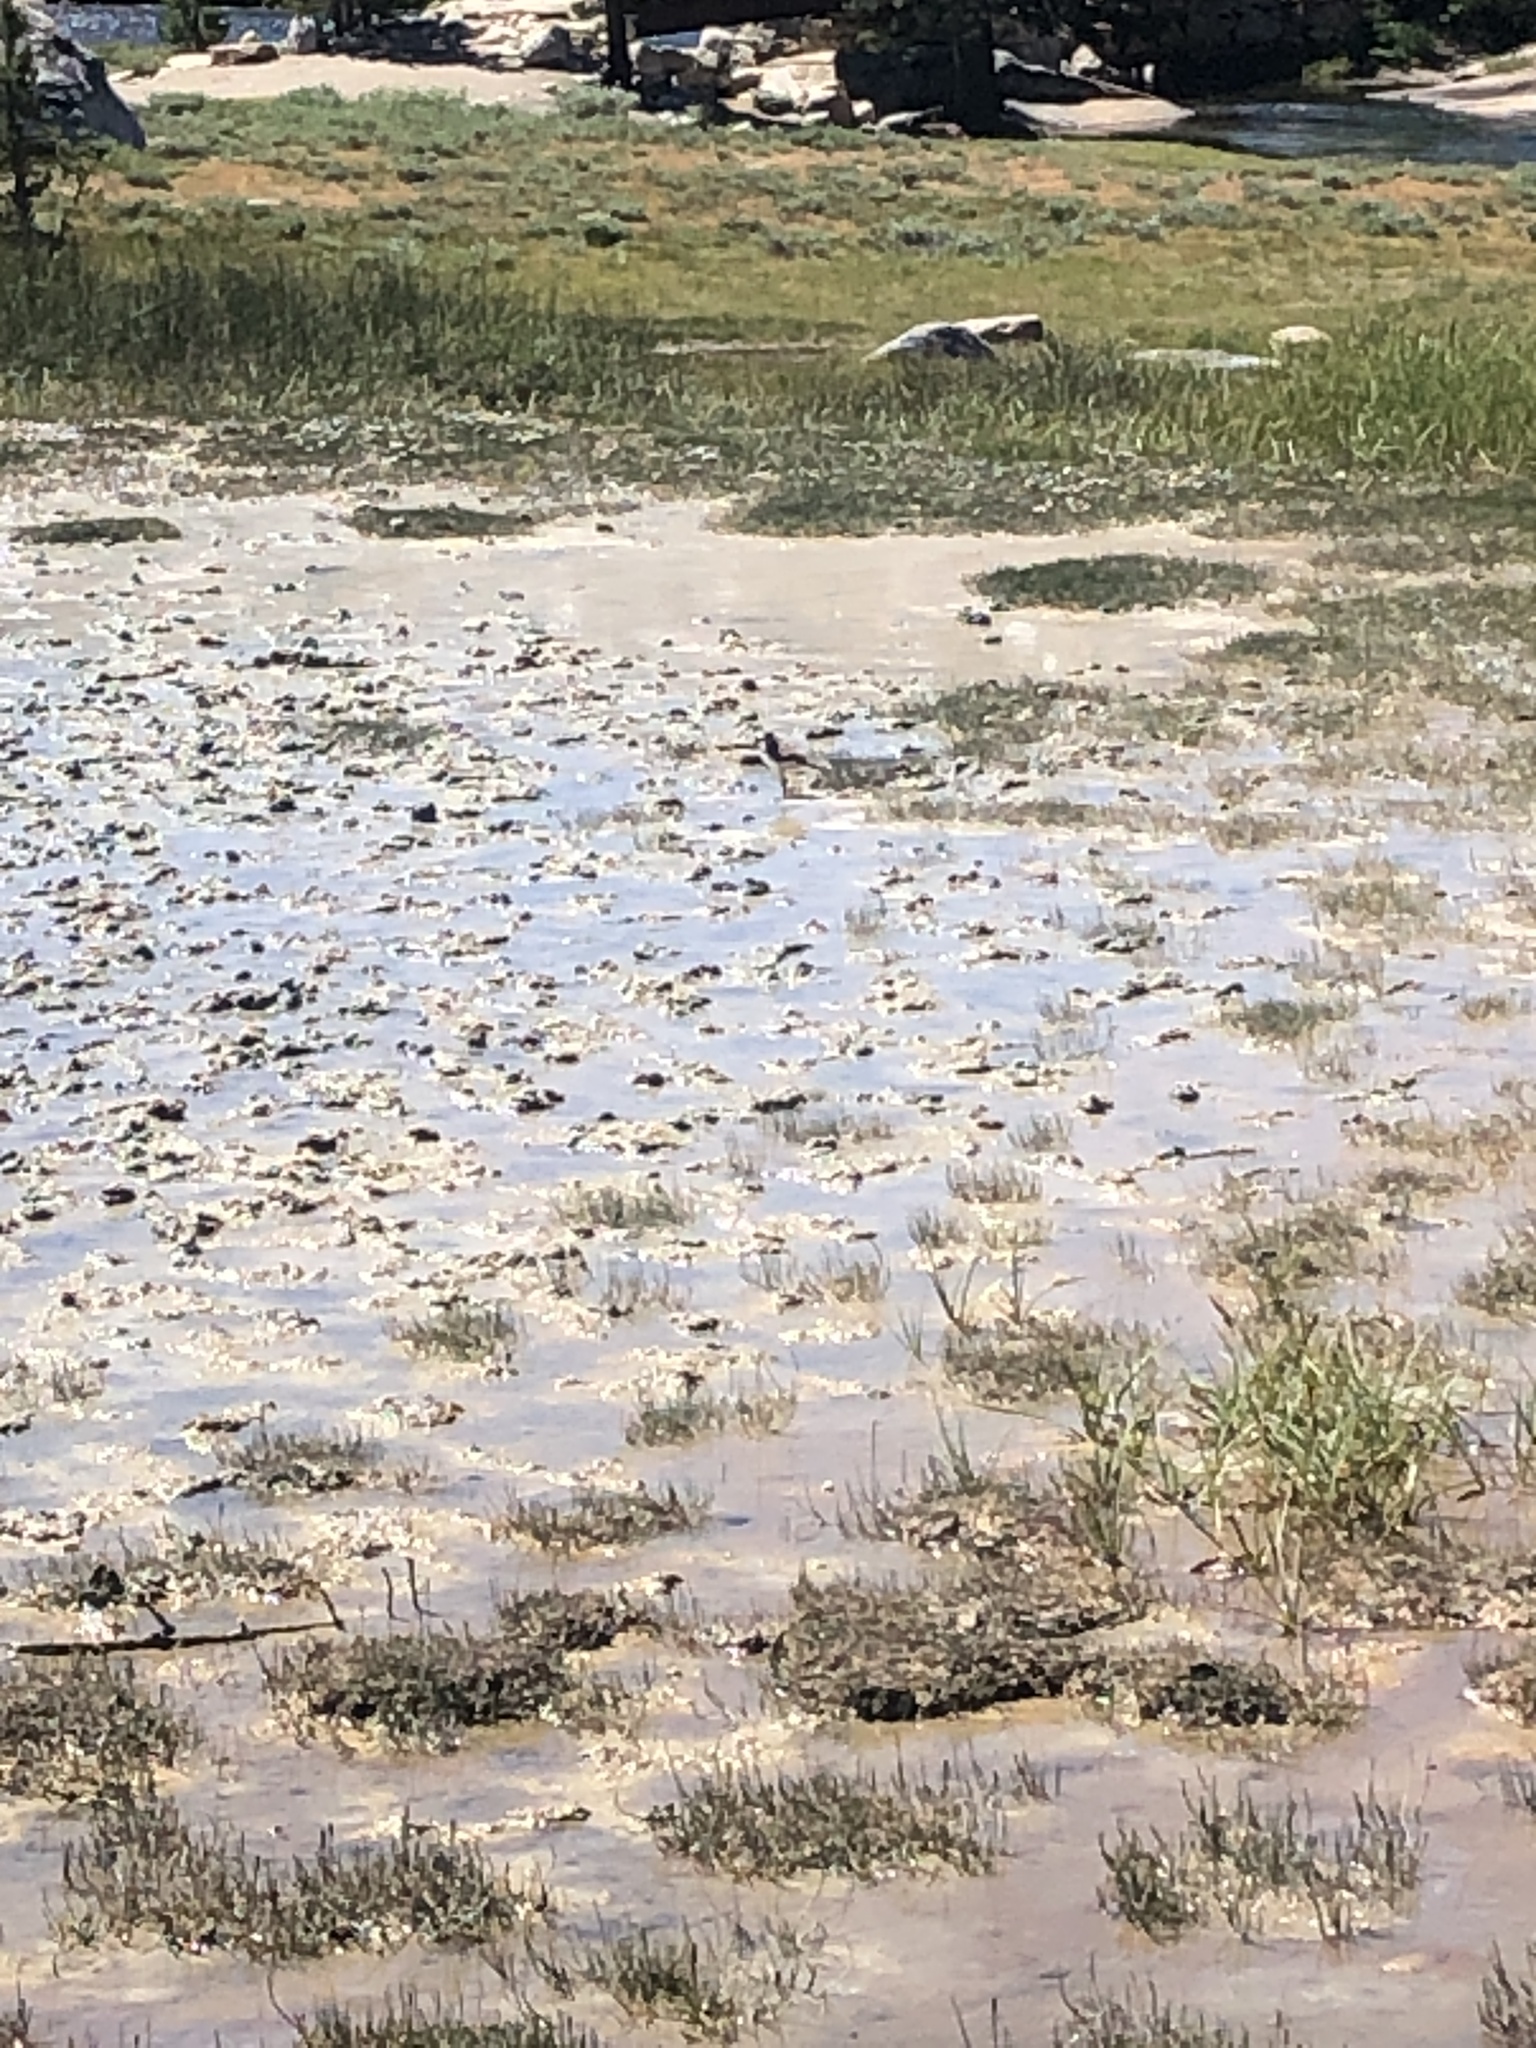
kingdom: Animalia
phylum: Chordata
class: Aves
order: Charadriiformes
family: Charadriidae
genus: Charadrius
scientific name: Charadrius vociferus
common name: Killdeer
